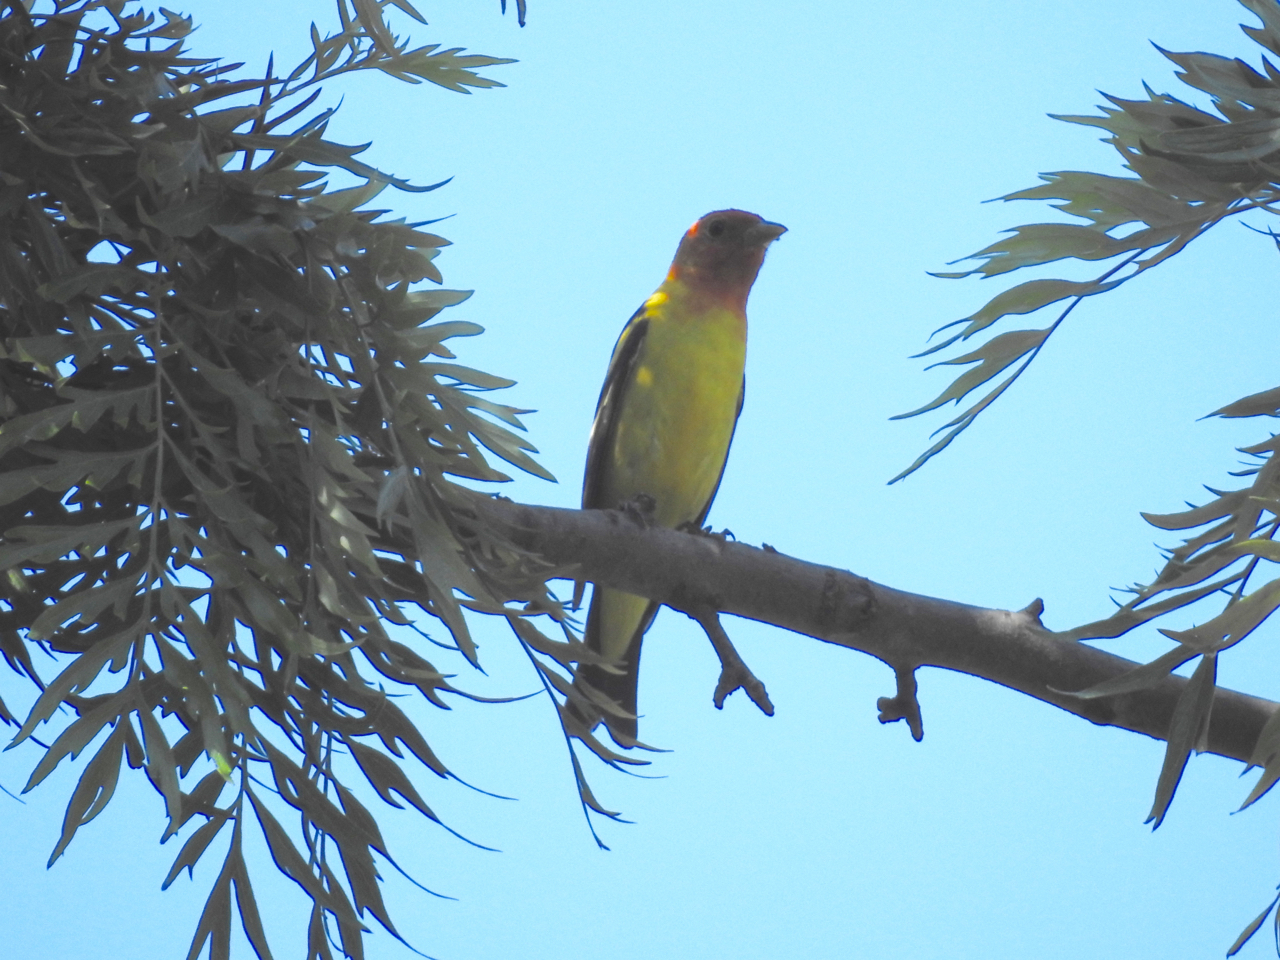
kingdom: Animalia
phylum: Chordata
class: Aves
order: Passeriformes
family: Cardinalidae
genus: Piranga
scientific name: Piranga ludoviciana
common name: Western tanager
